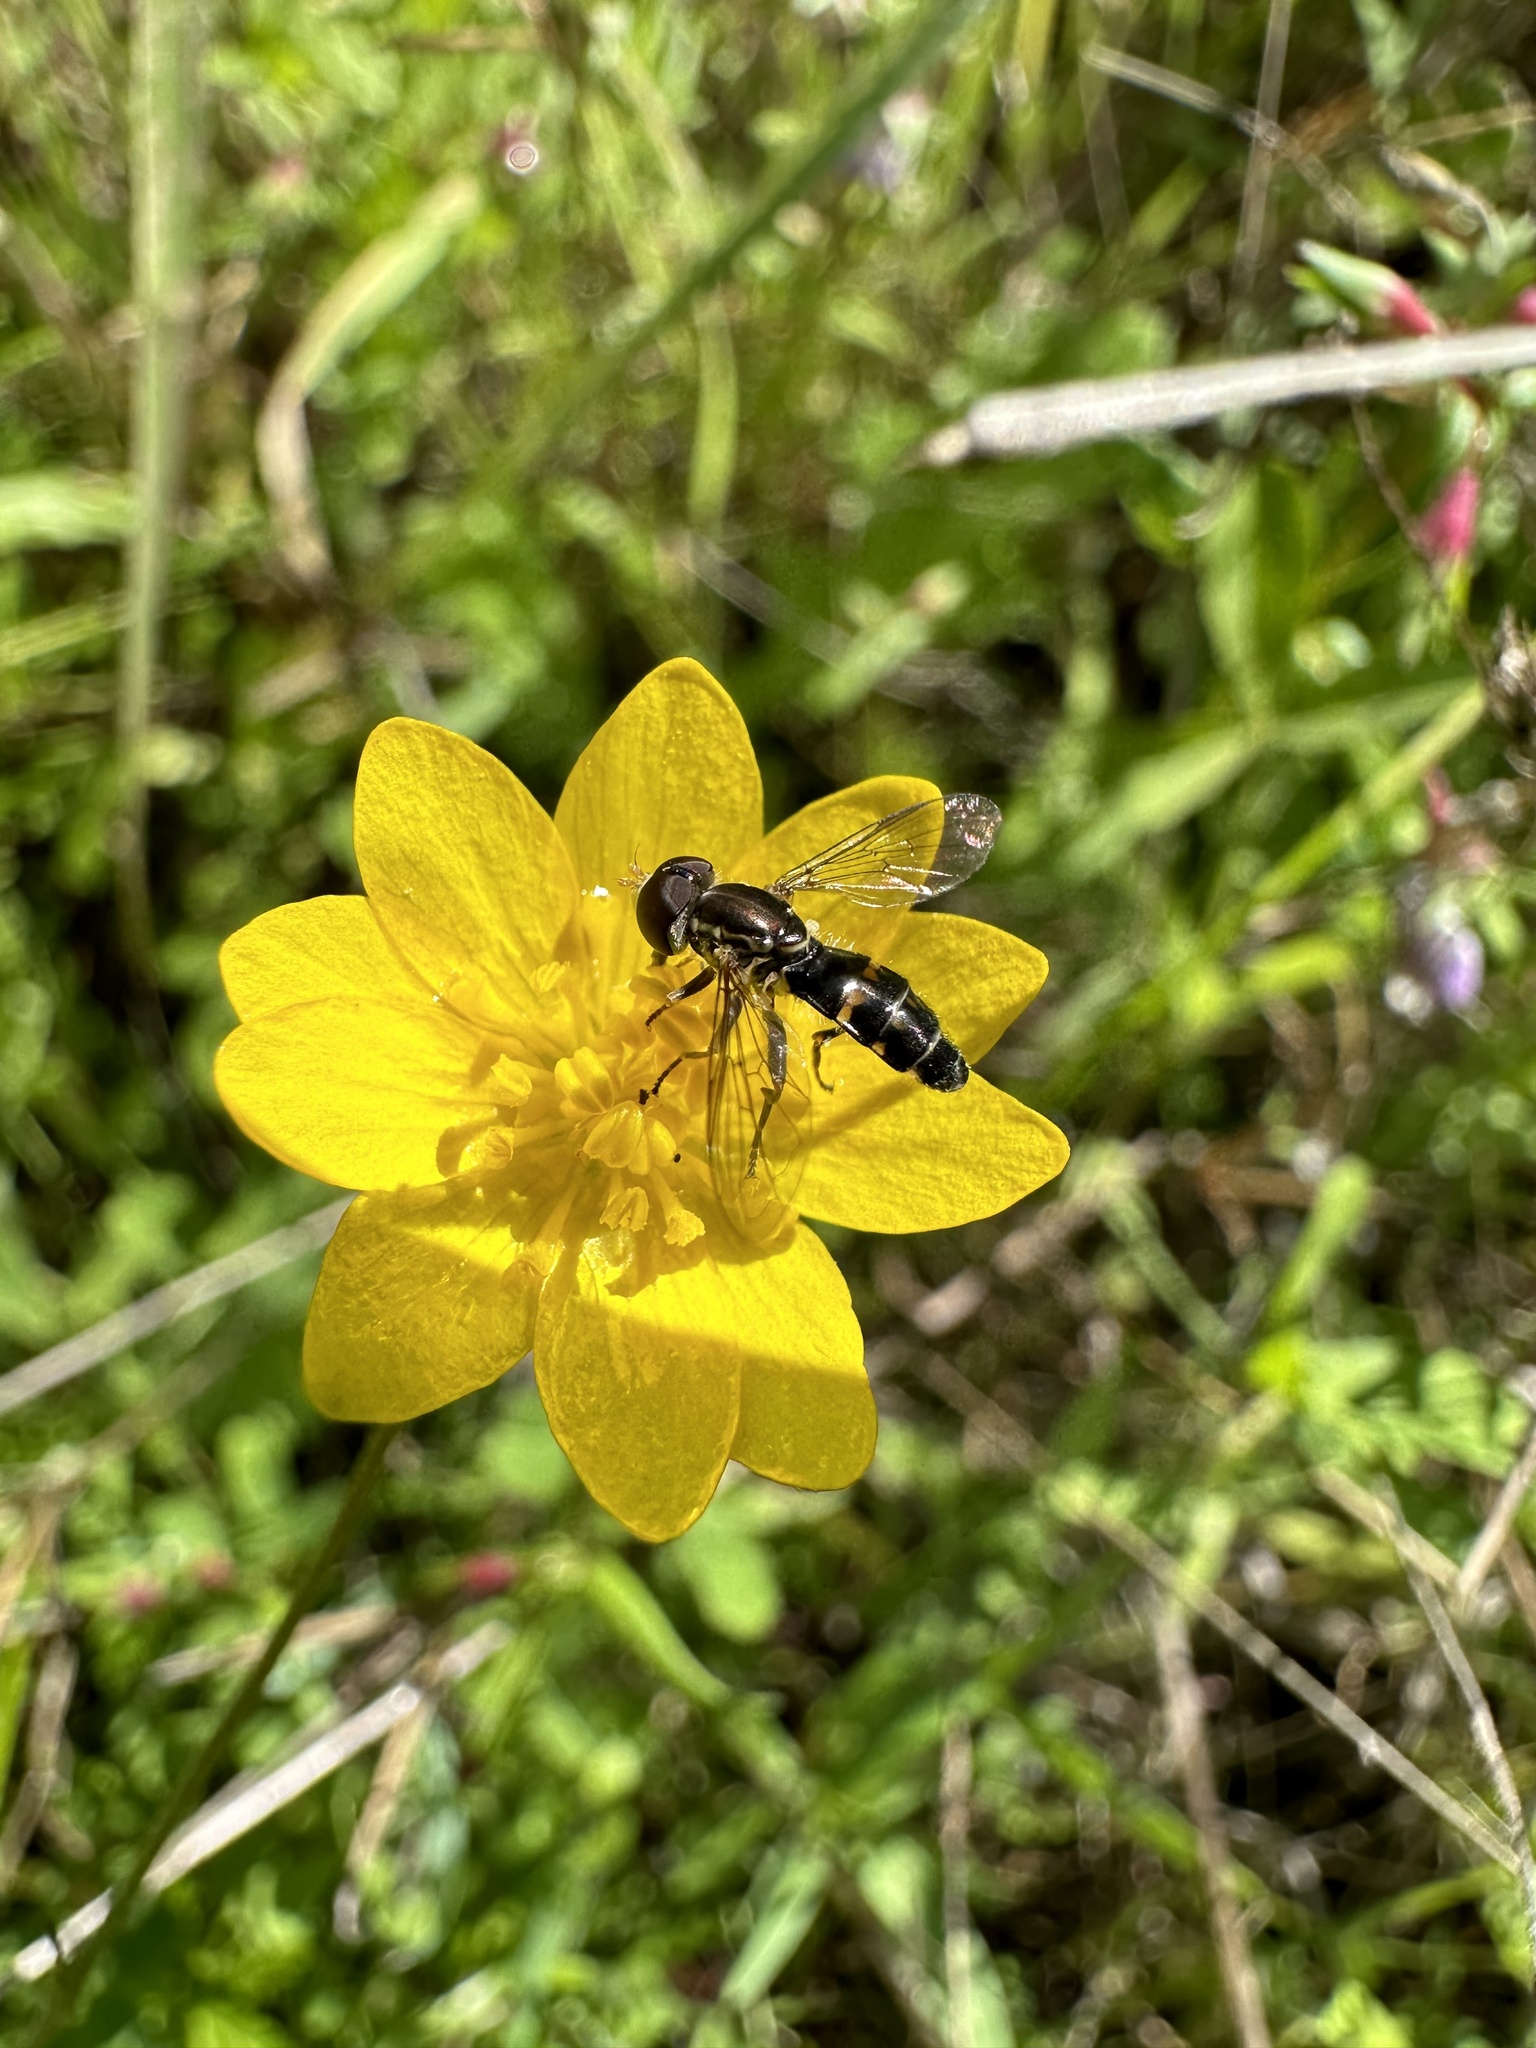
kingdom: Animalia
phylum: Arthropoda
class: Insecta
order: Diptera
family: Syrphidae
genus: Toxomerus
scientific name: Toxomerus occidentalis
